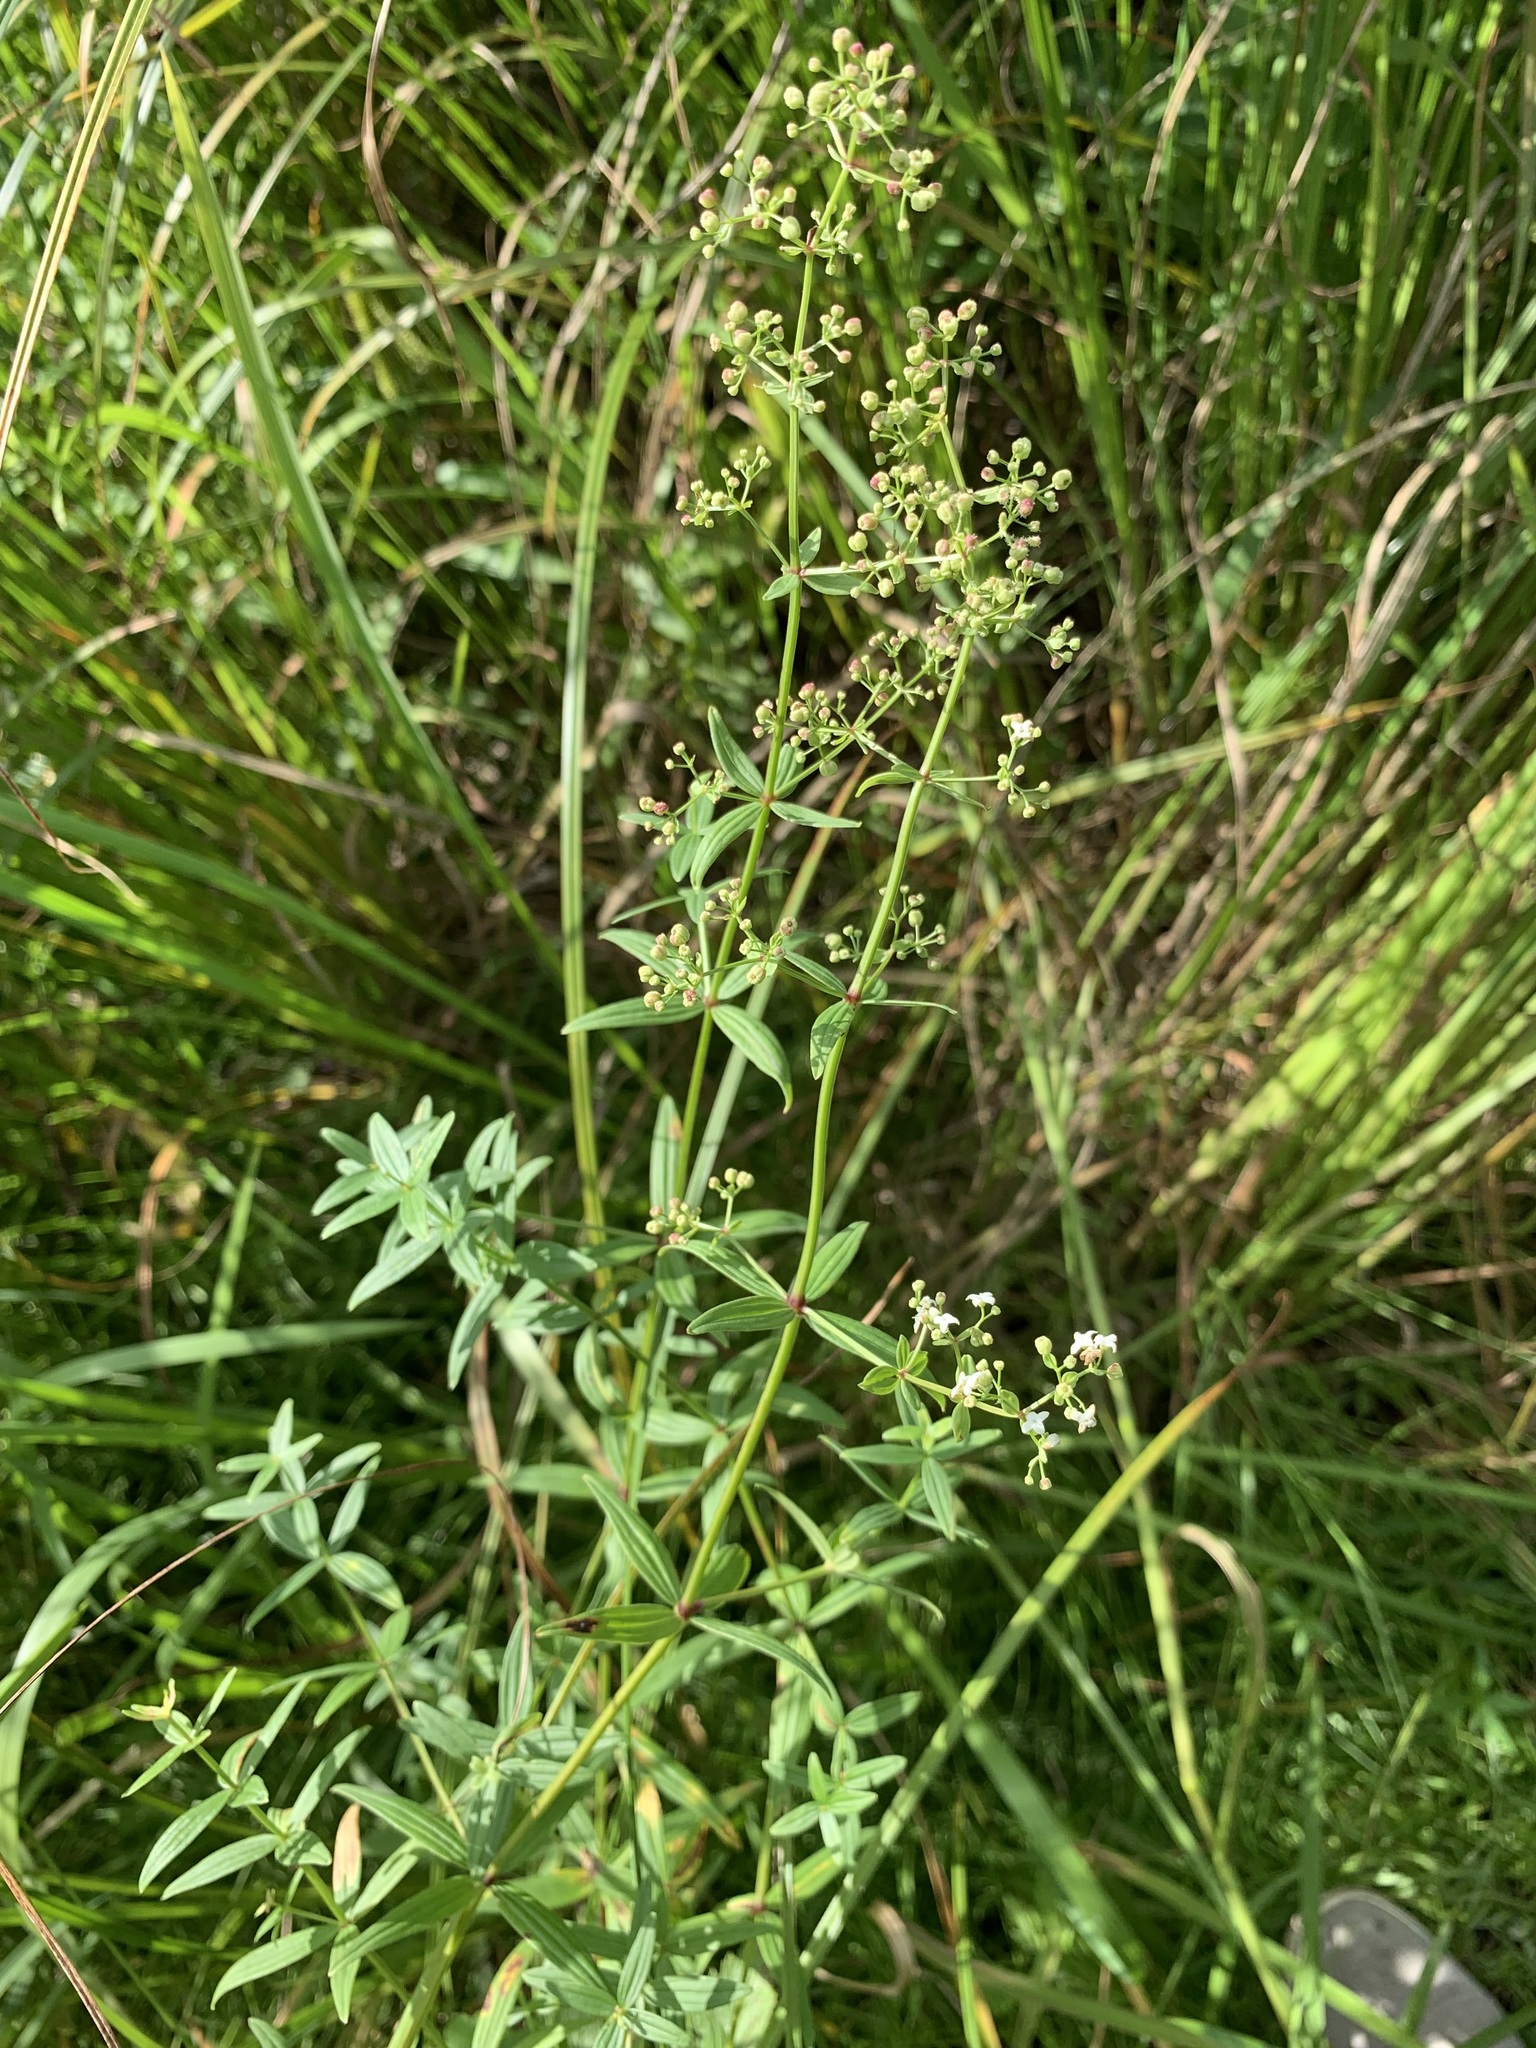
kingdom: Plantae
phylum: Tracheophyta
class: Magnoliopsida
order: Gentianales
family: Rubiaceae
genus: Galium
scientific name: Galium rubioides
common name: European bedstraw
